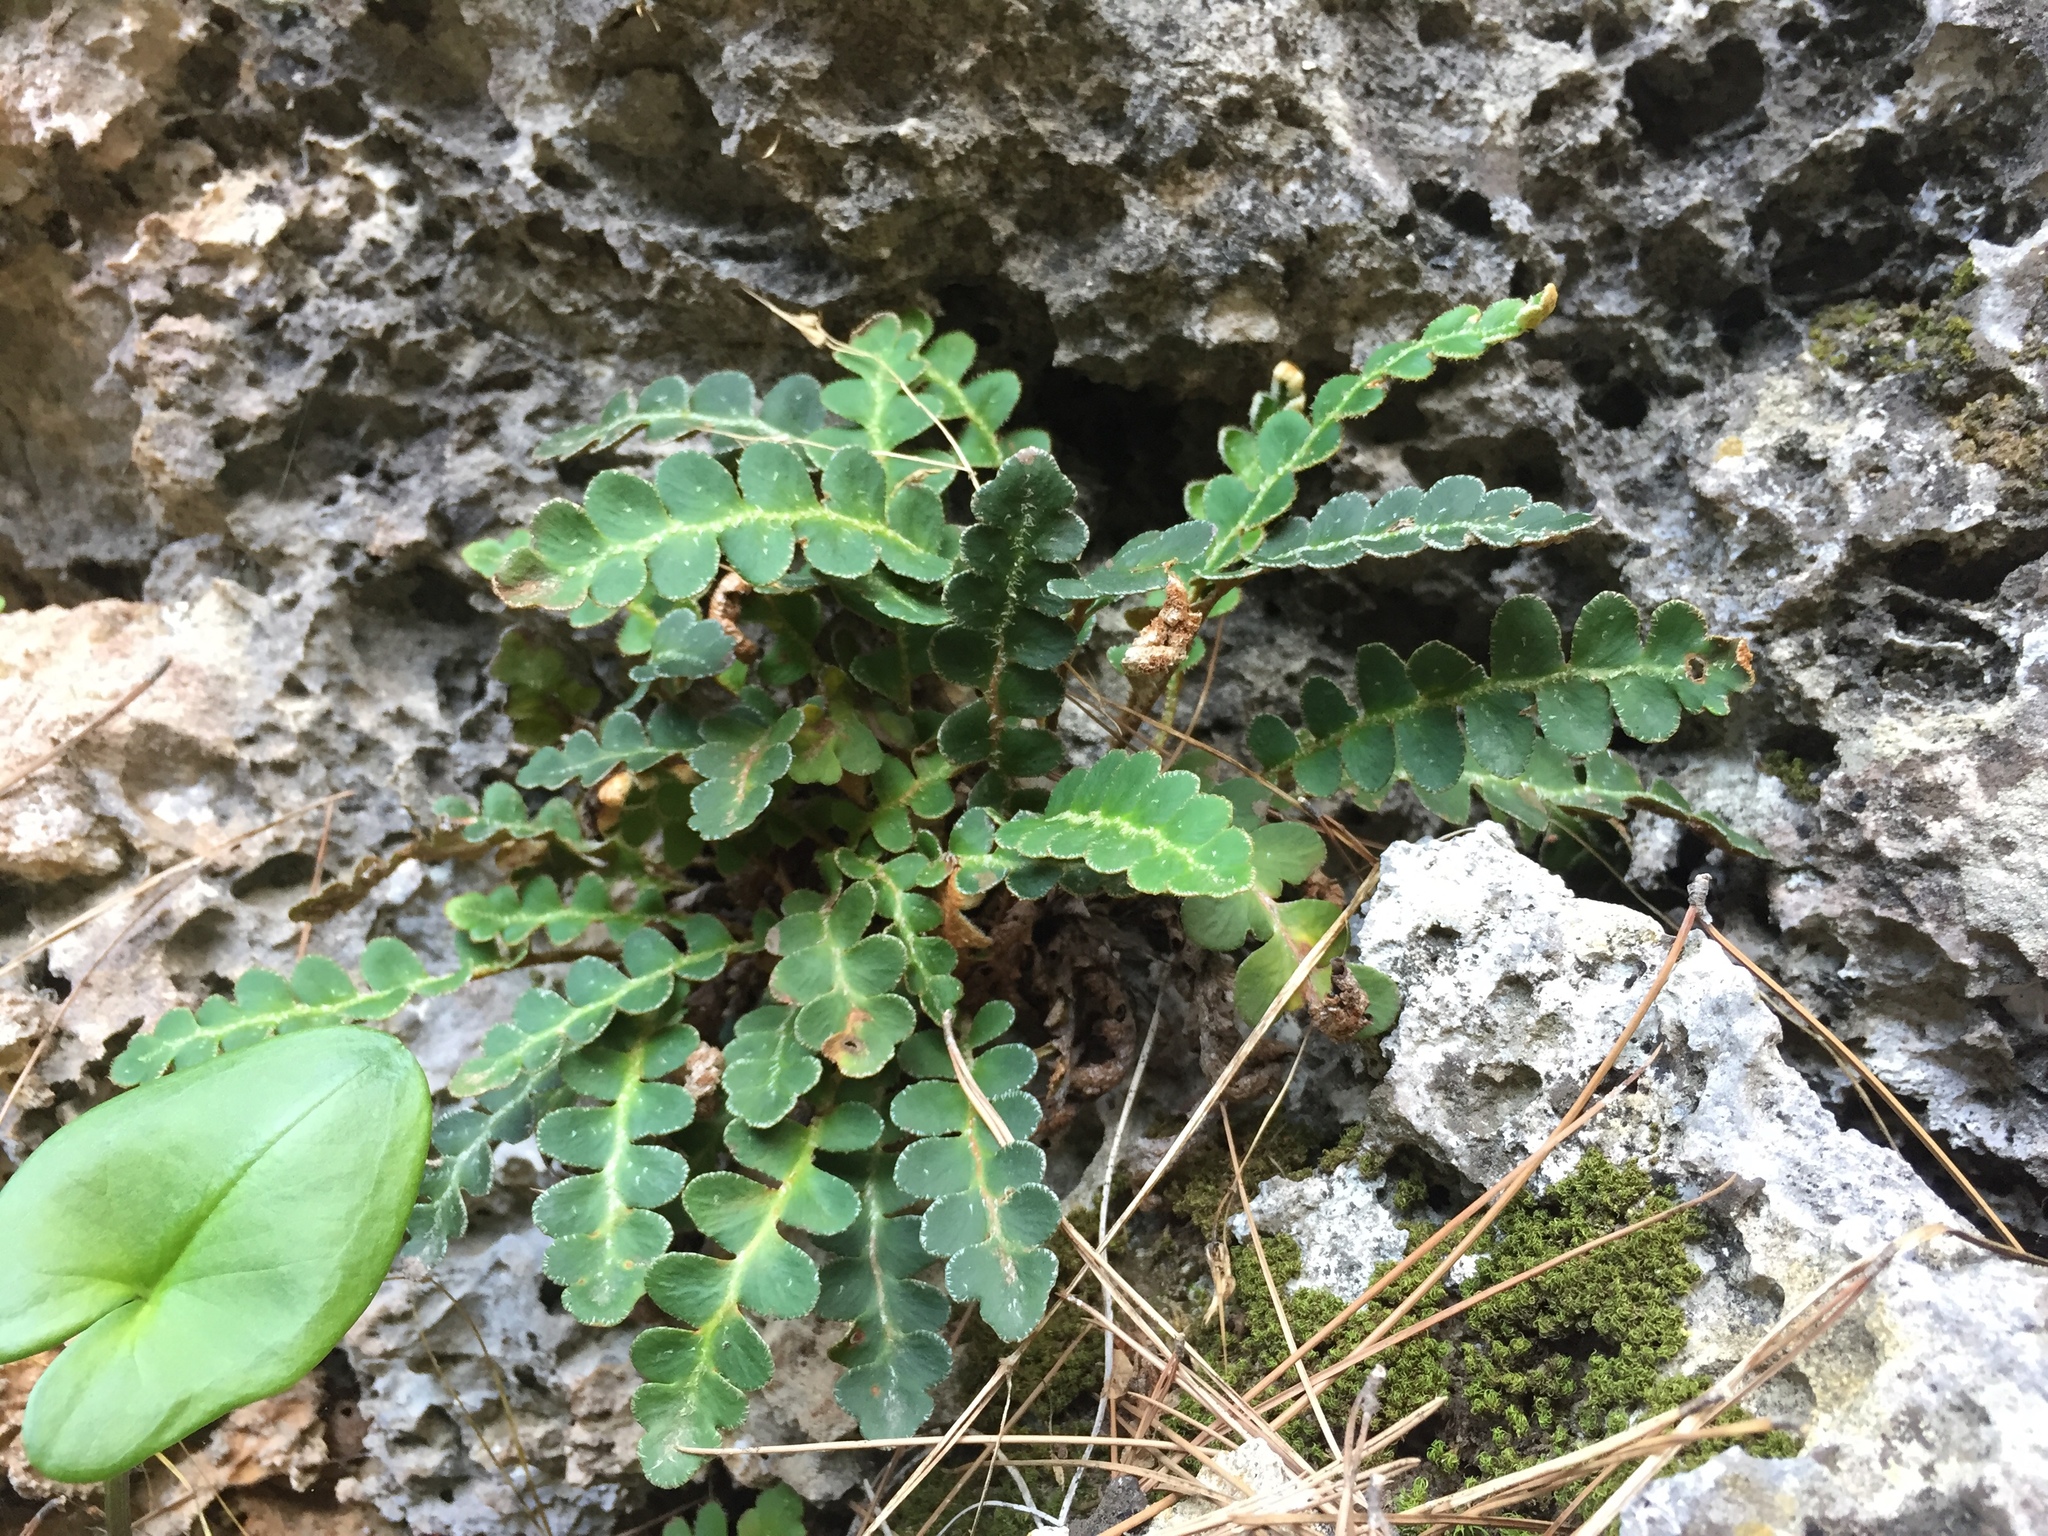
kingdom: Plantae
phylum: Tracheophyta
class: Polypodiopsida
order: Polypodiales
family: Aspleniaceae
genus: Asplenium
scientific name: Asplenium ceterach
